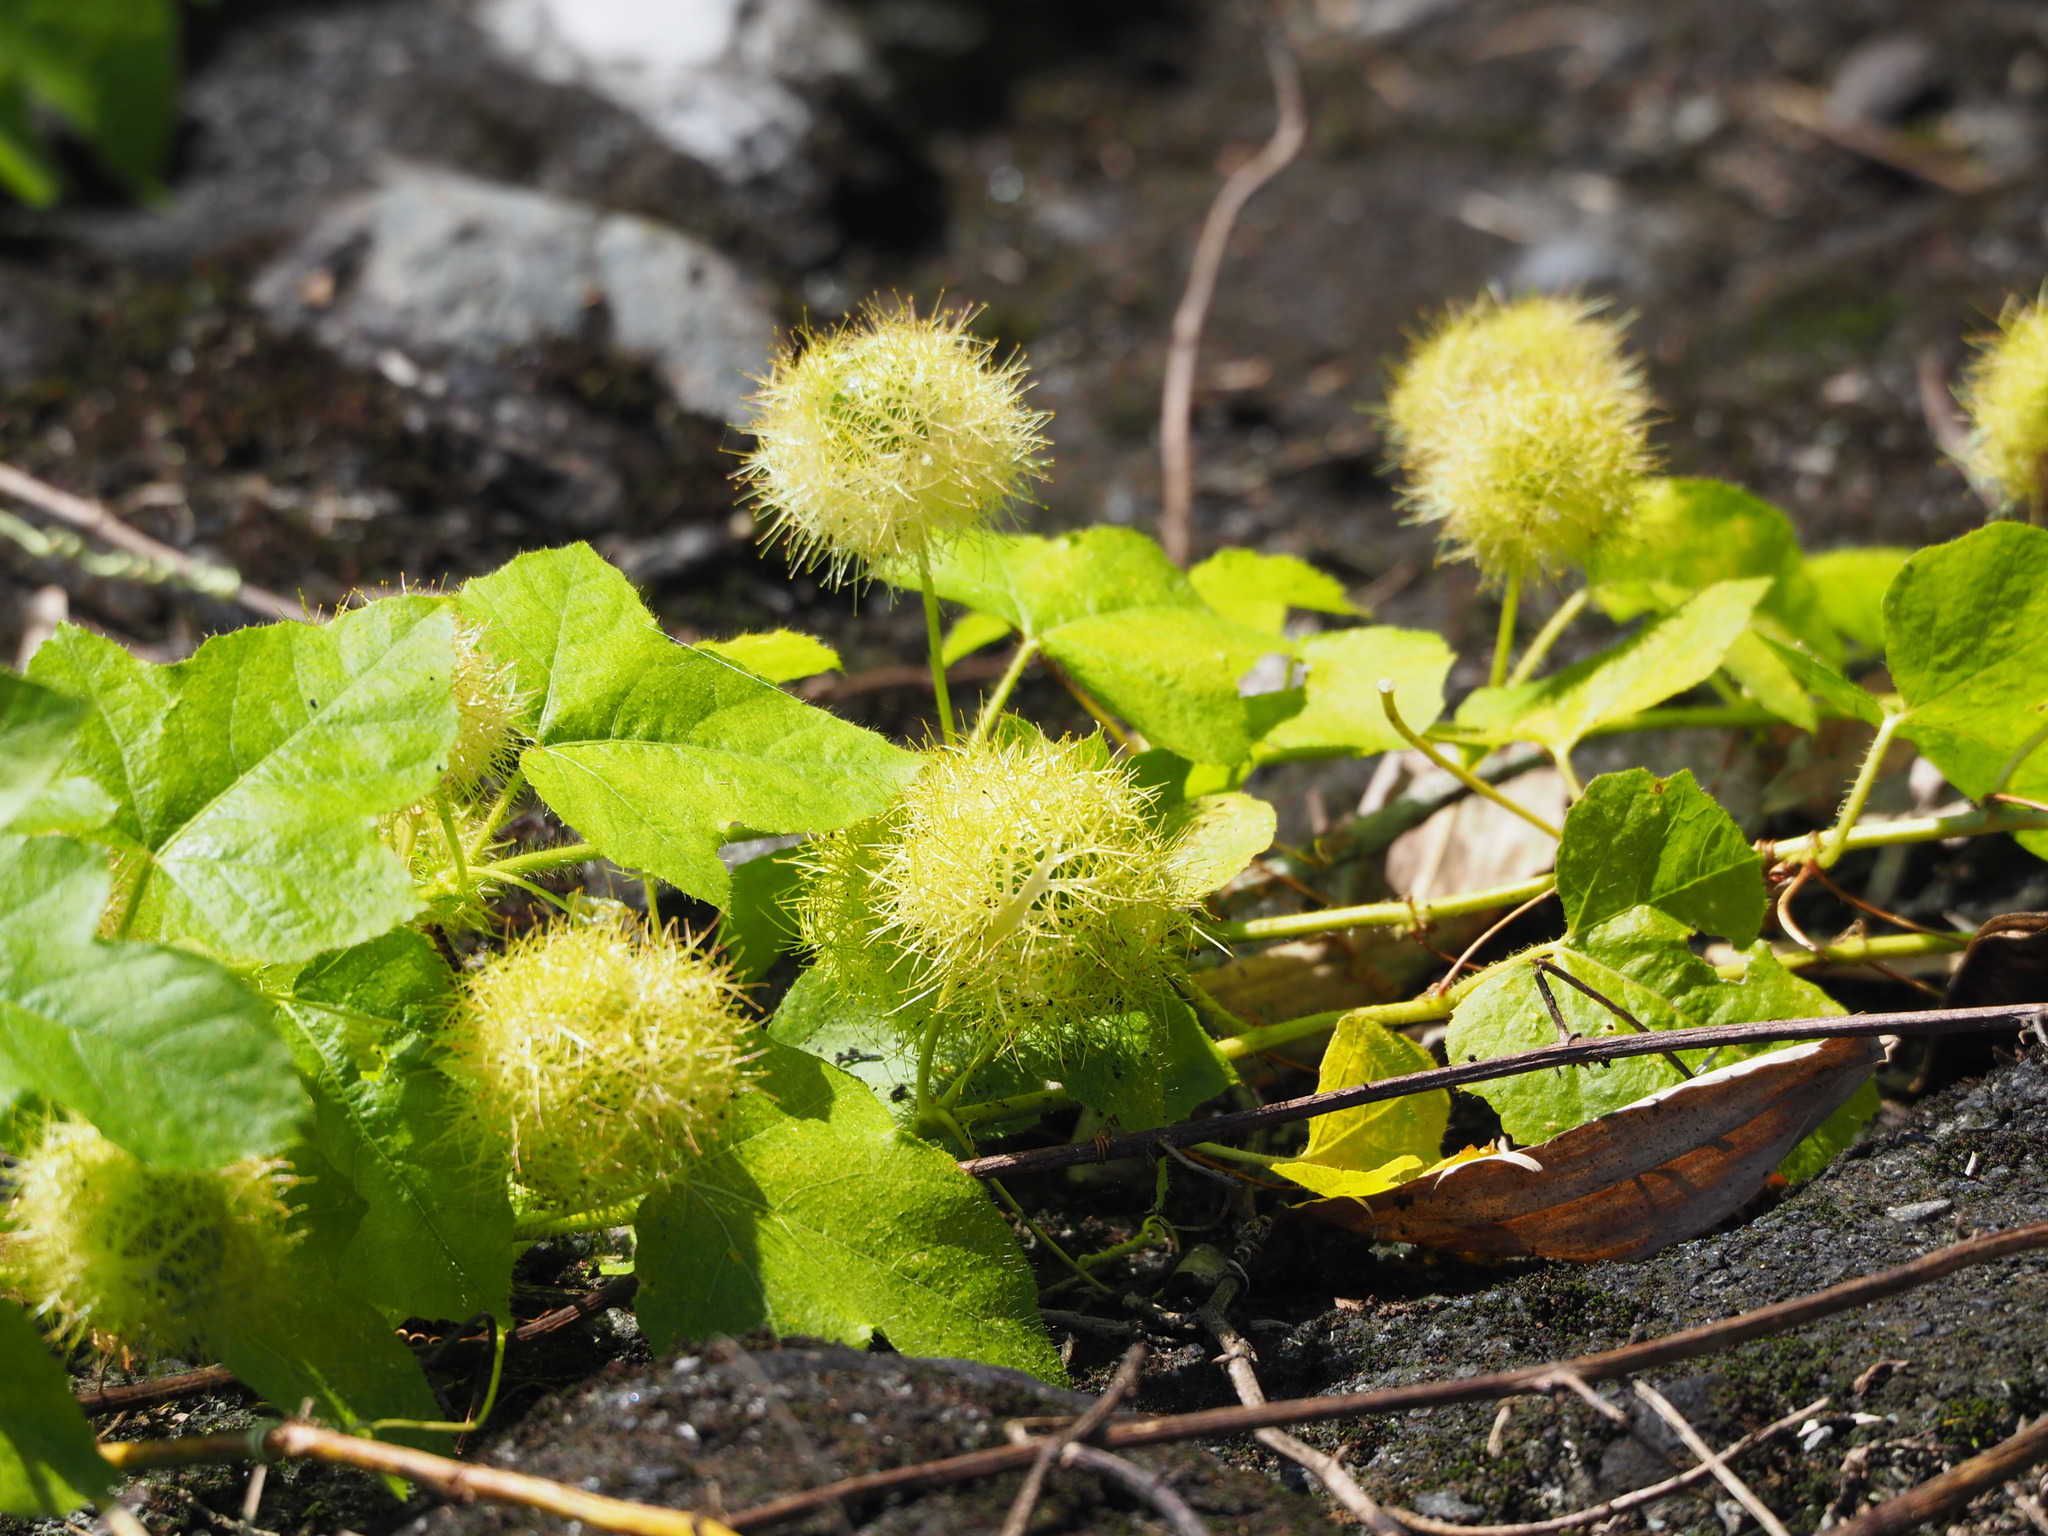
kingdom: Plantae
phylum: Tracheophyta
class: Magnoliopsida
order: Malpighiales
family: Passifloraceae
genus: Passiflora
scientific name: Passiflora vesicaria
